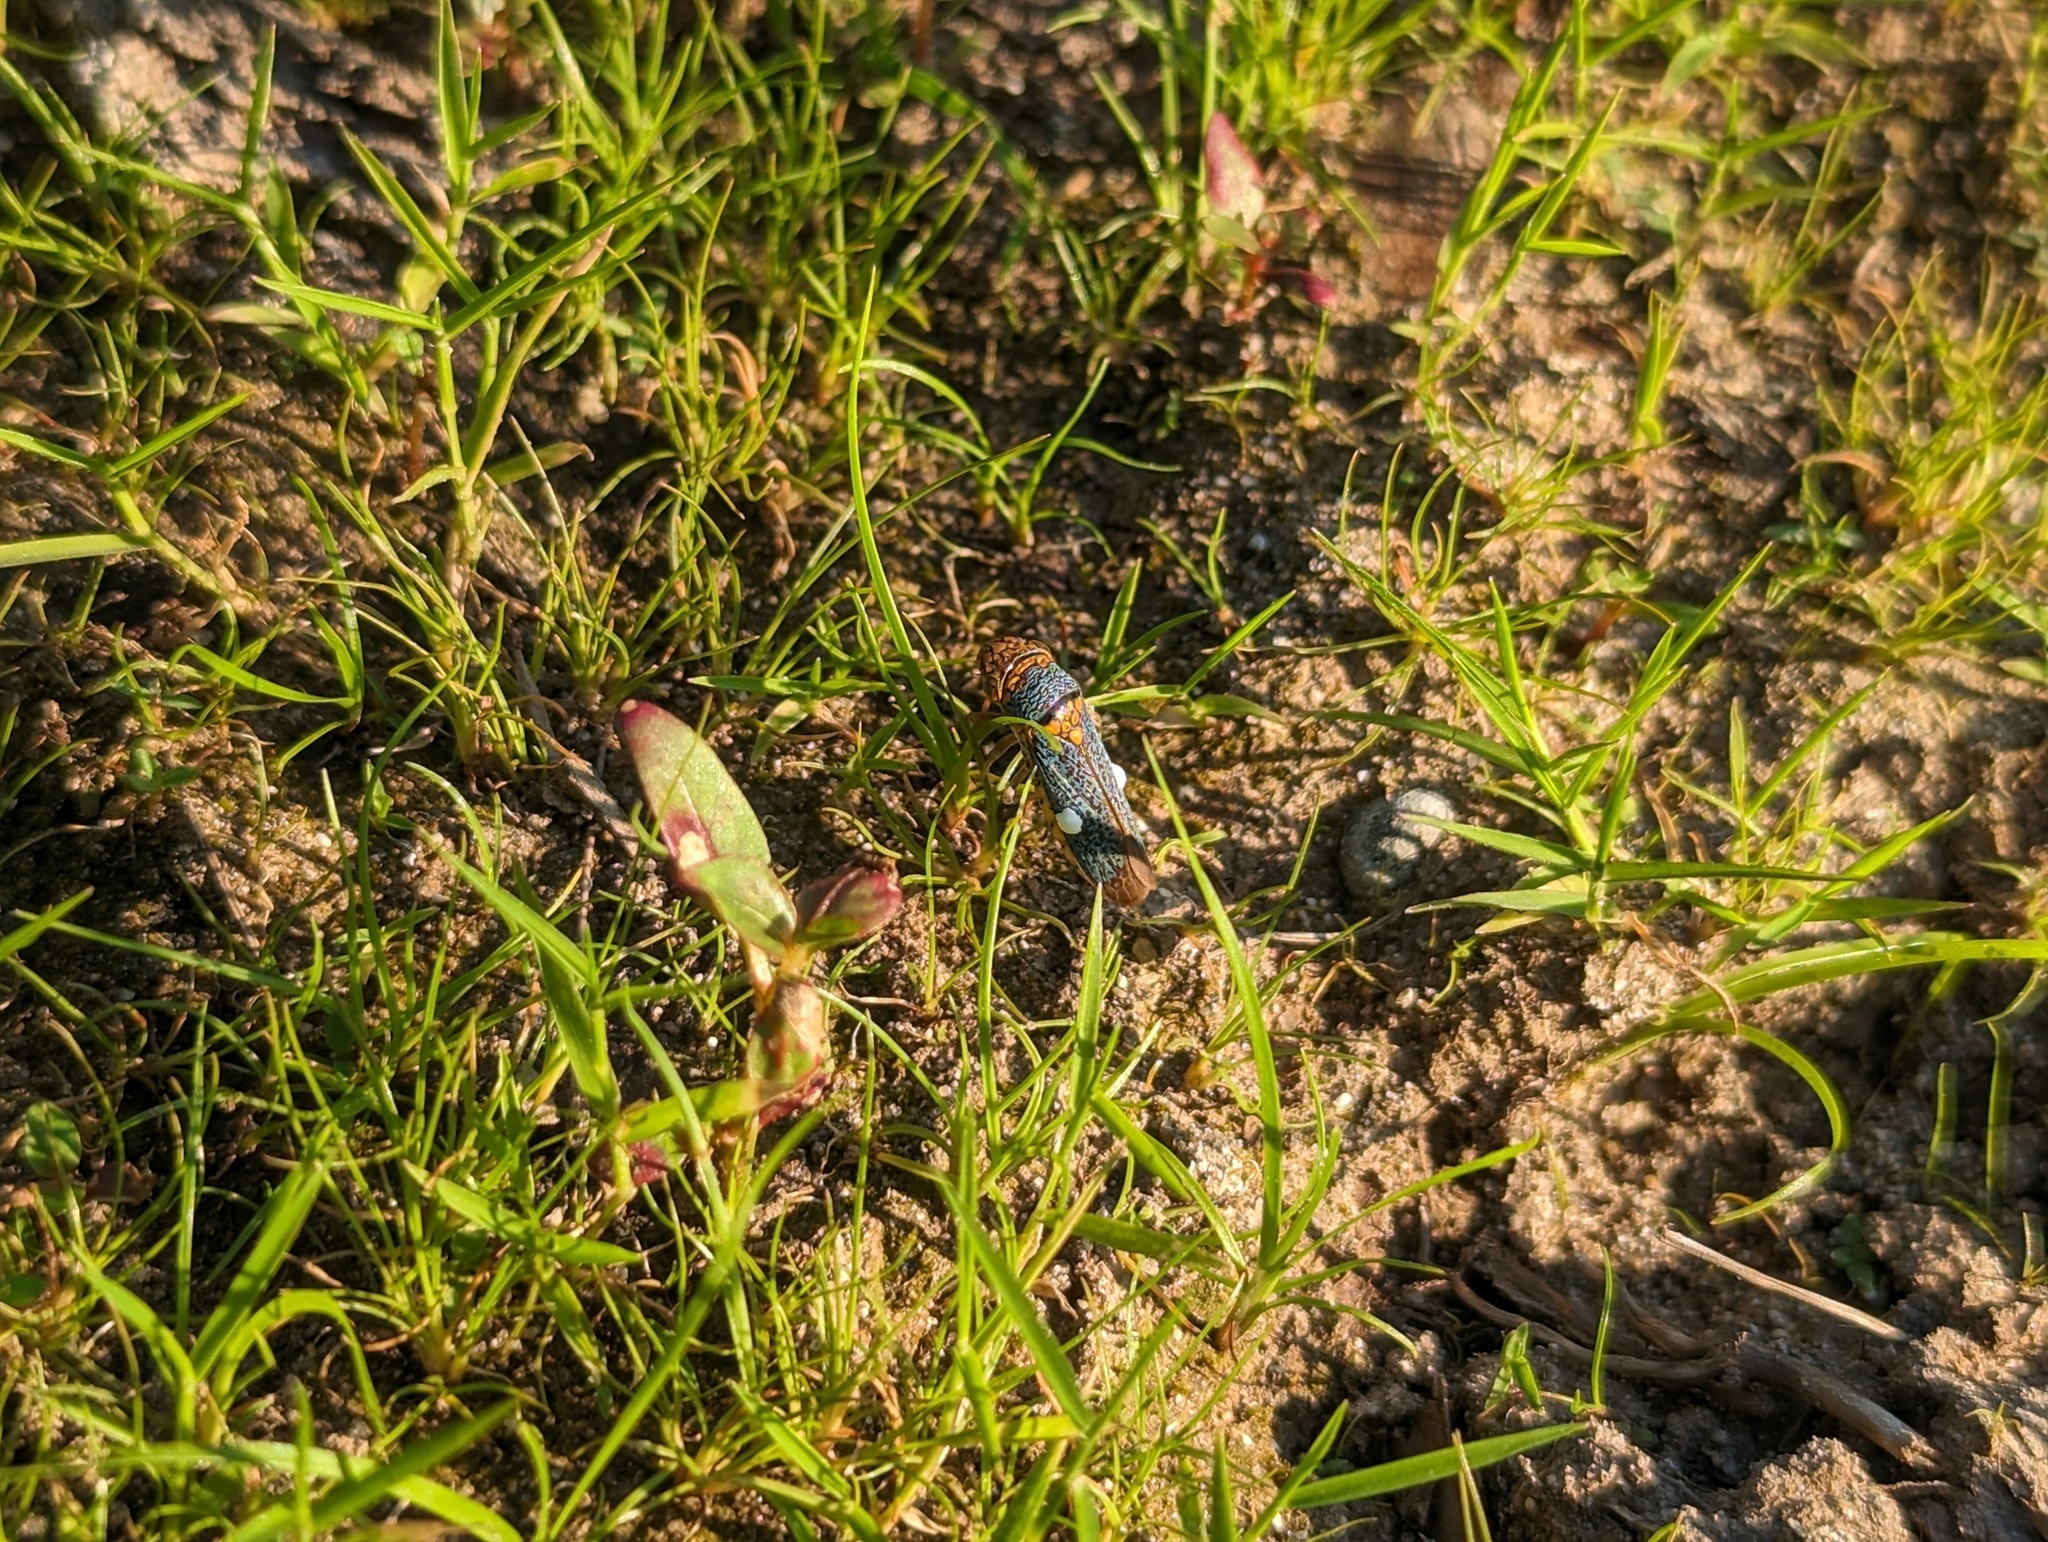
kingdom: Animalia
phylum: Arthropoda
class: Insecta
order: Hemiptera
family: Cicadellidae
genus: Oncometopia
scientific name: Oncometopia orbona
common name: Broad-headed sharpshooter
